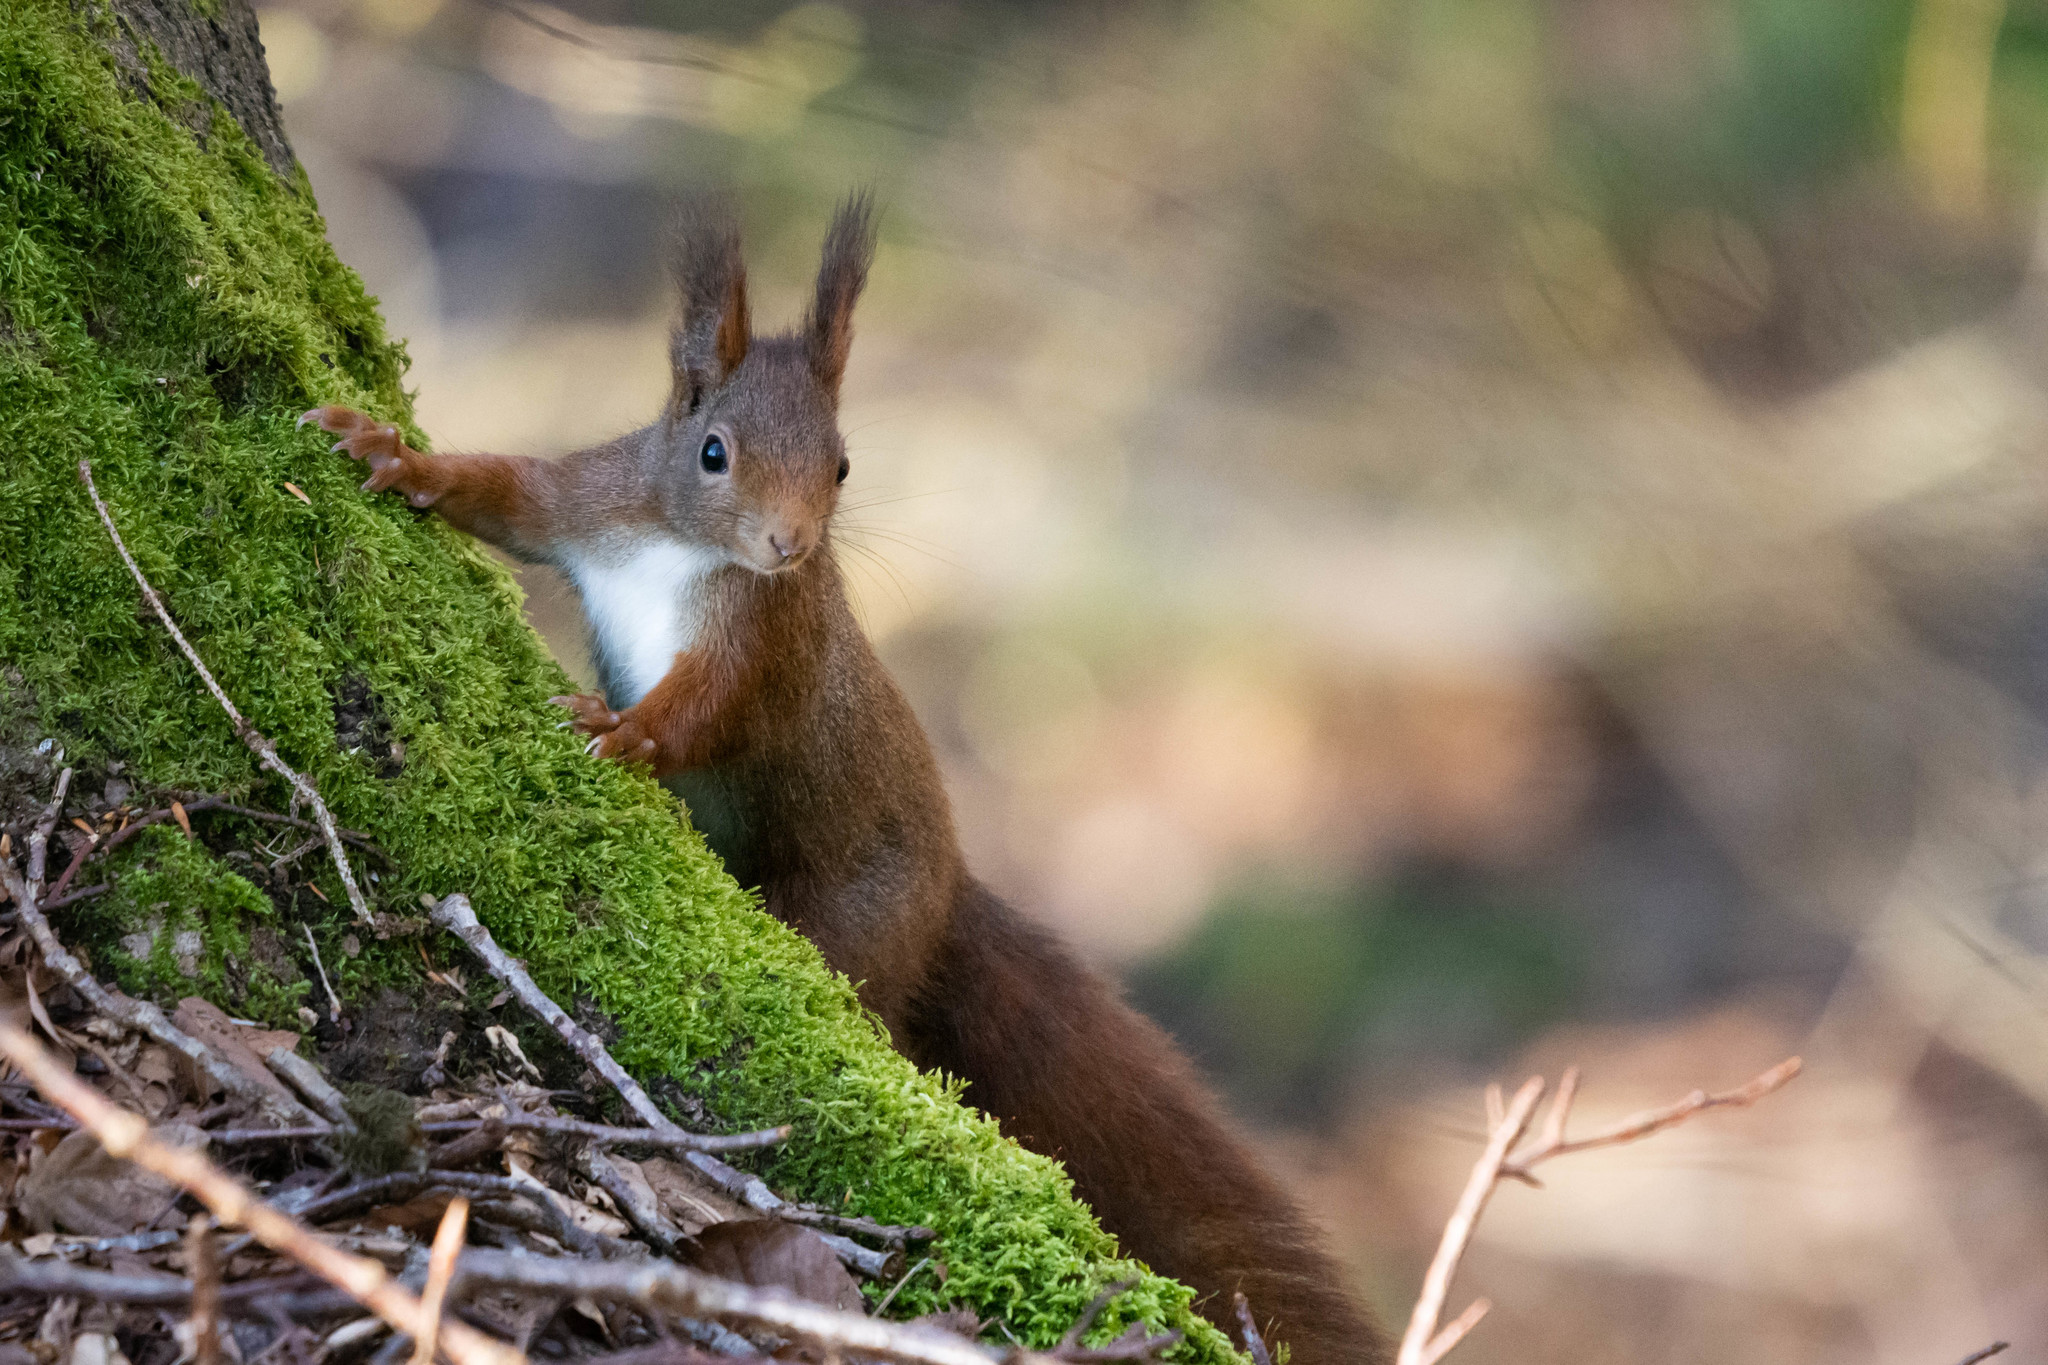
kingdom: Animalia
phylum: Chordata
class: Mammalia
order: Rodentia
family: Sciuridae
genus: Sciurus
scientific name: Sciurus vulgaris
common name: Eurasian red squirrel
